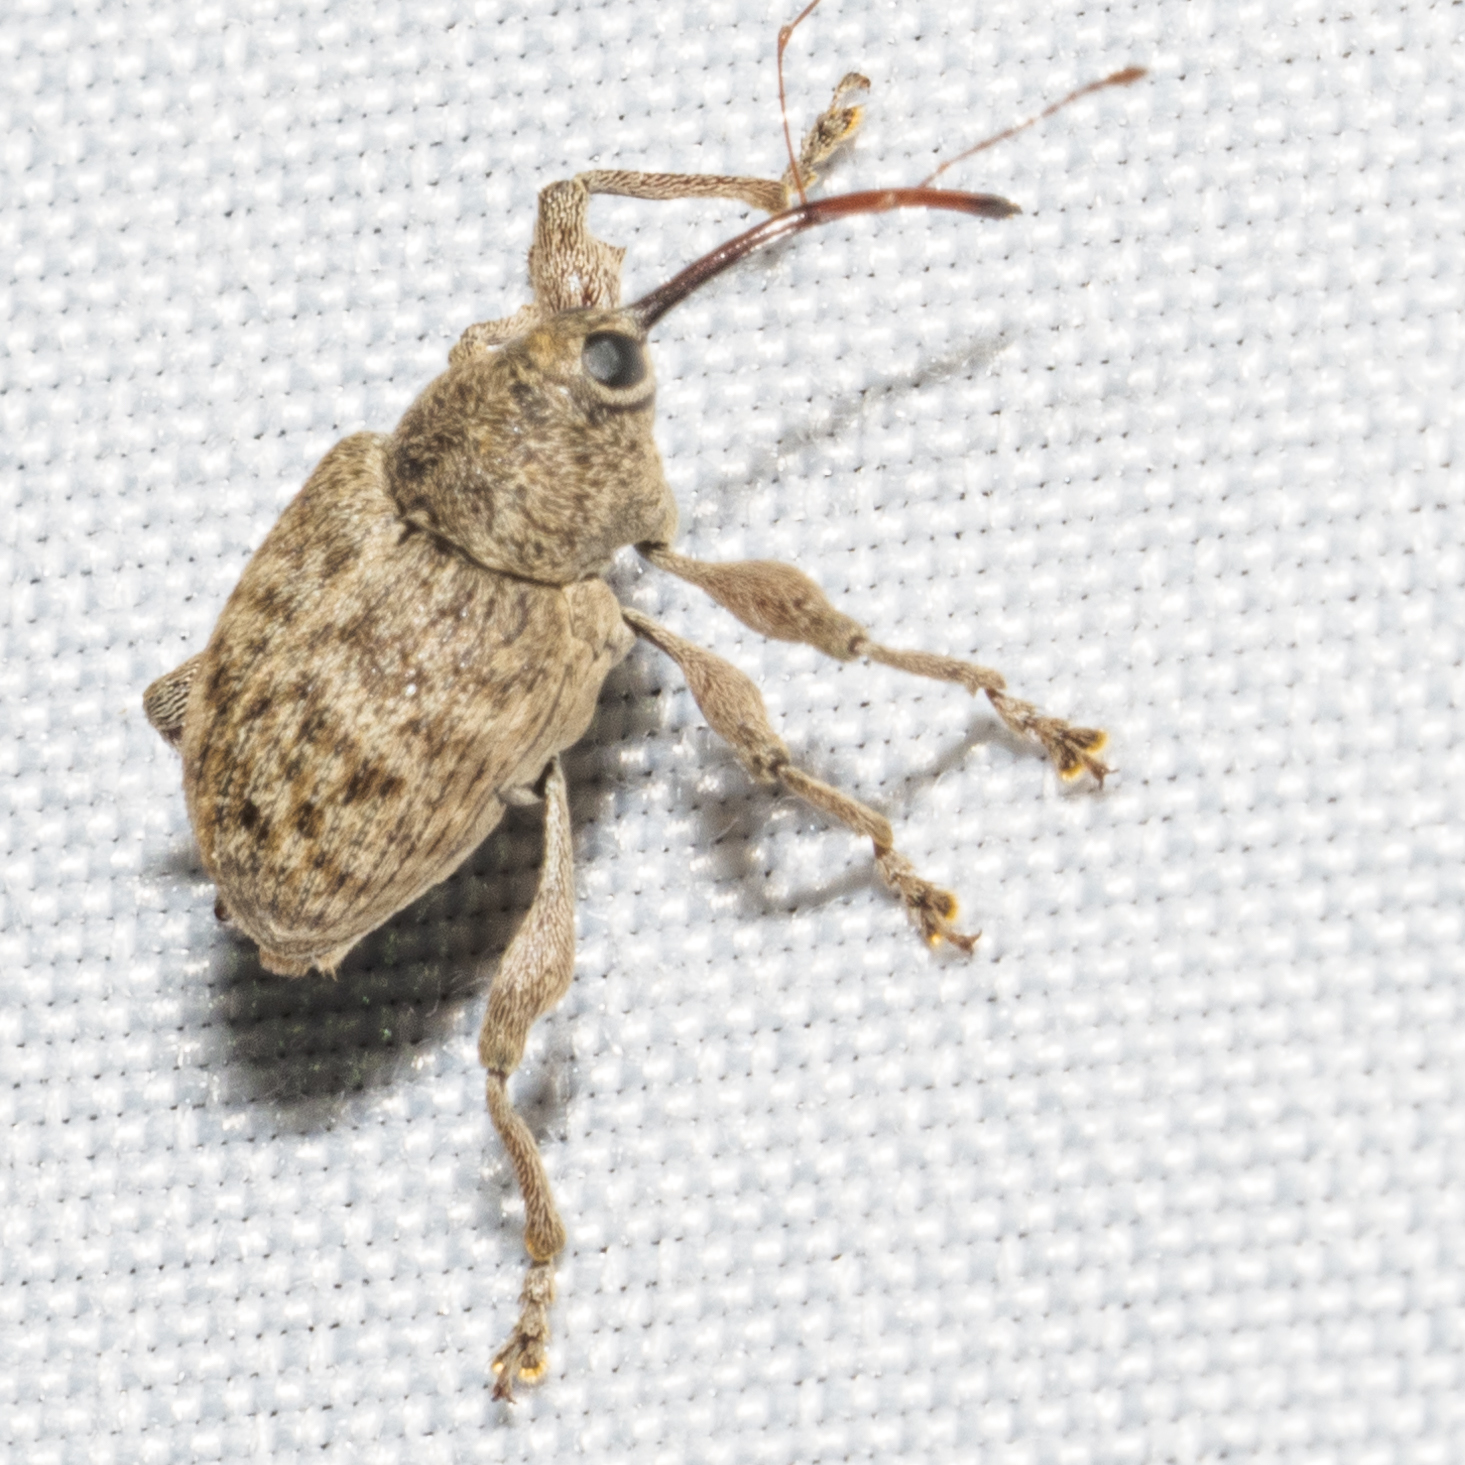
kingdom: Animalia
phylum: Arthropoda
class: Insecta
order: Coleoptera
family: Curculionidae
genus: Curculio
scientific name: Curculio
